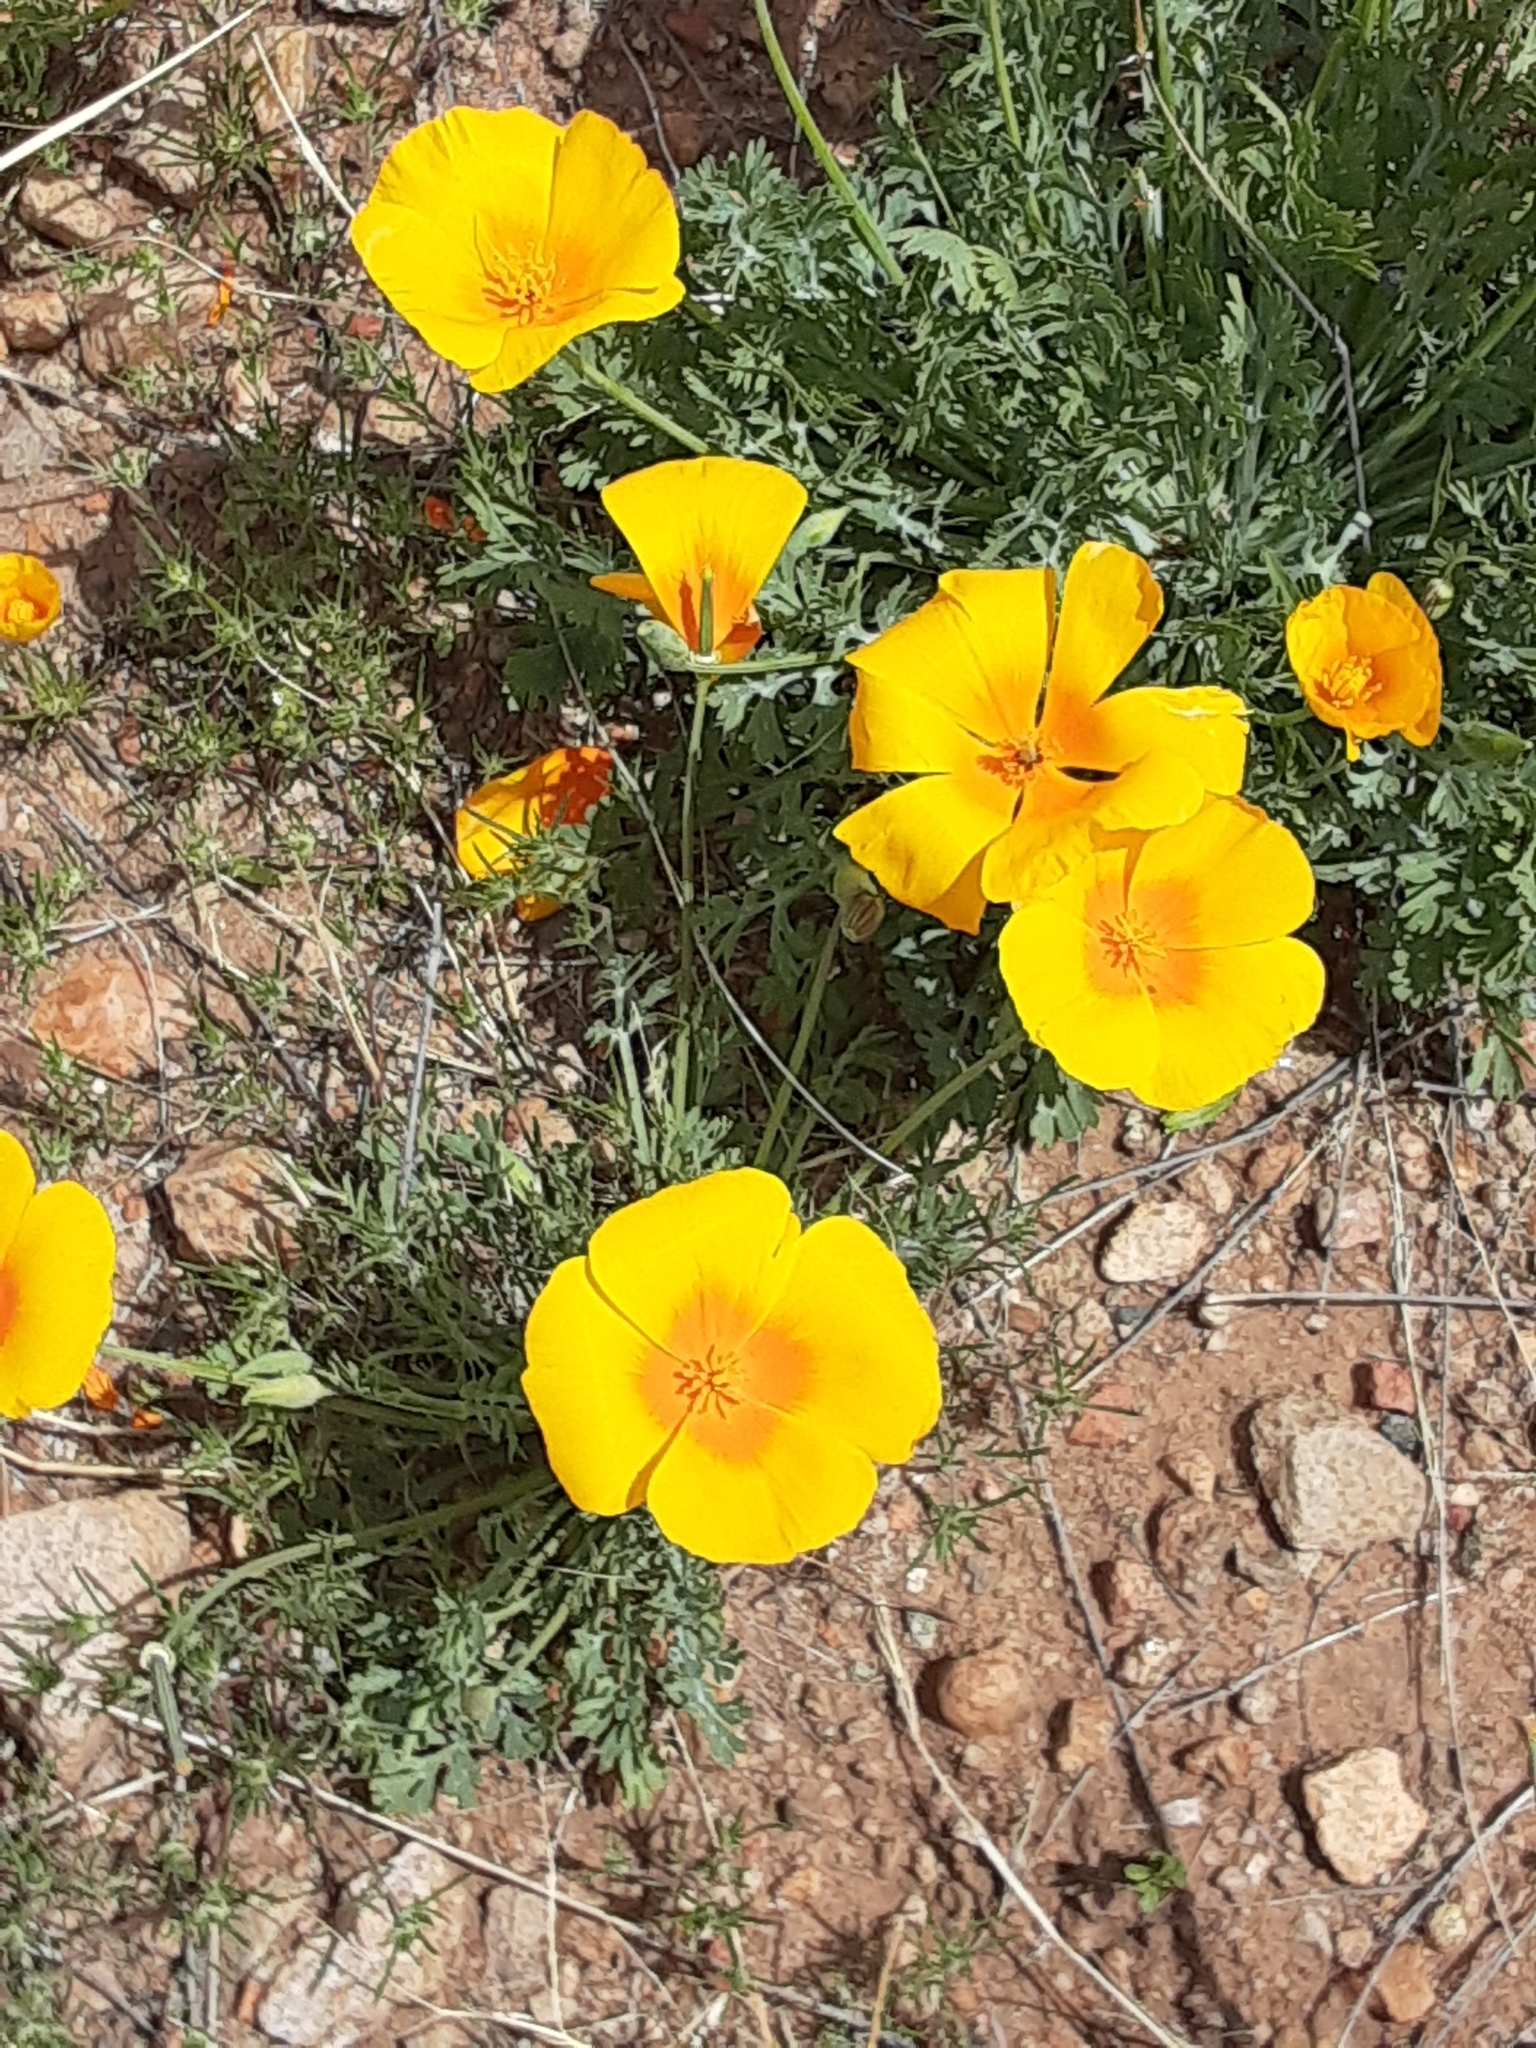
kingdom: Plantae
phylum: Tracheophyta
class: Magnoliopsida
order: Ranunculales
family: Papaveraceae
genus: Eschscholzia
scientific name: Eschscholzia californica
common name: California poppy
